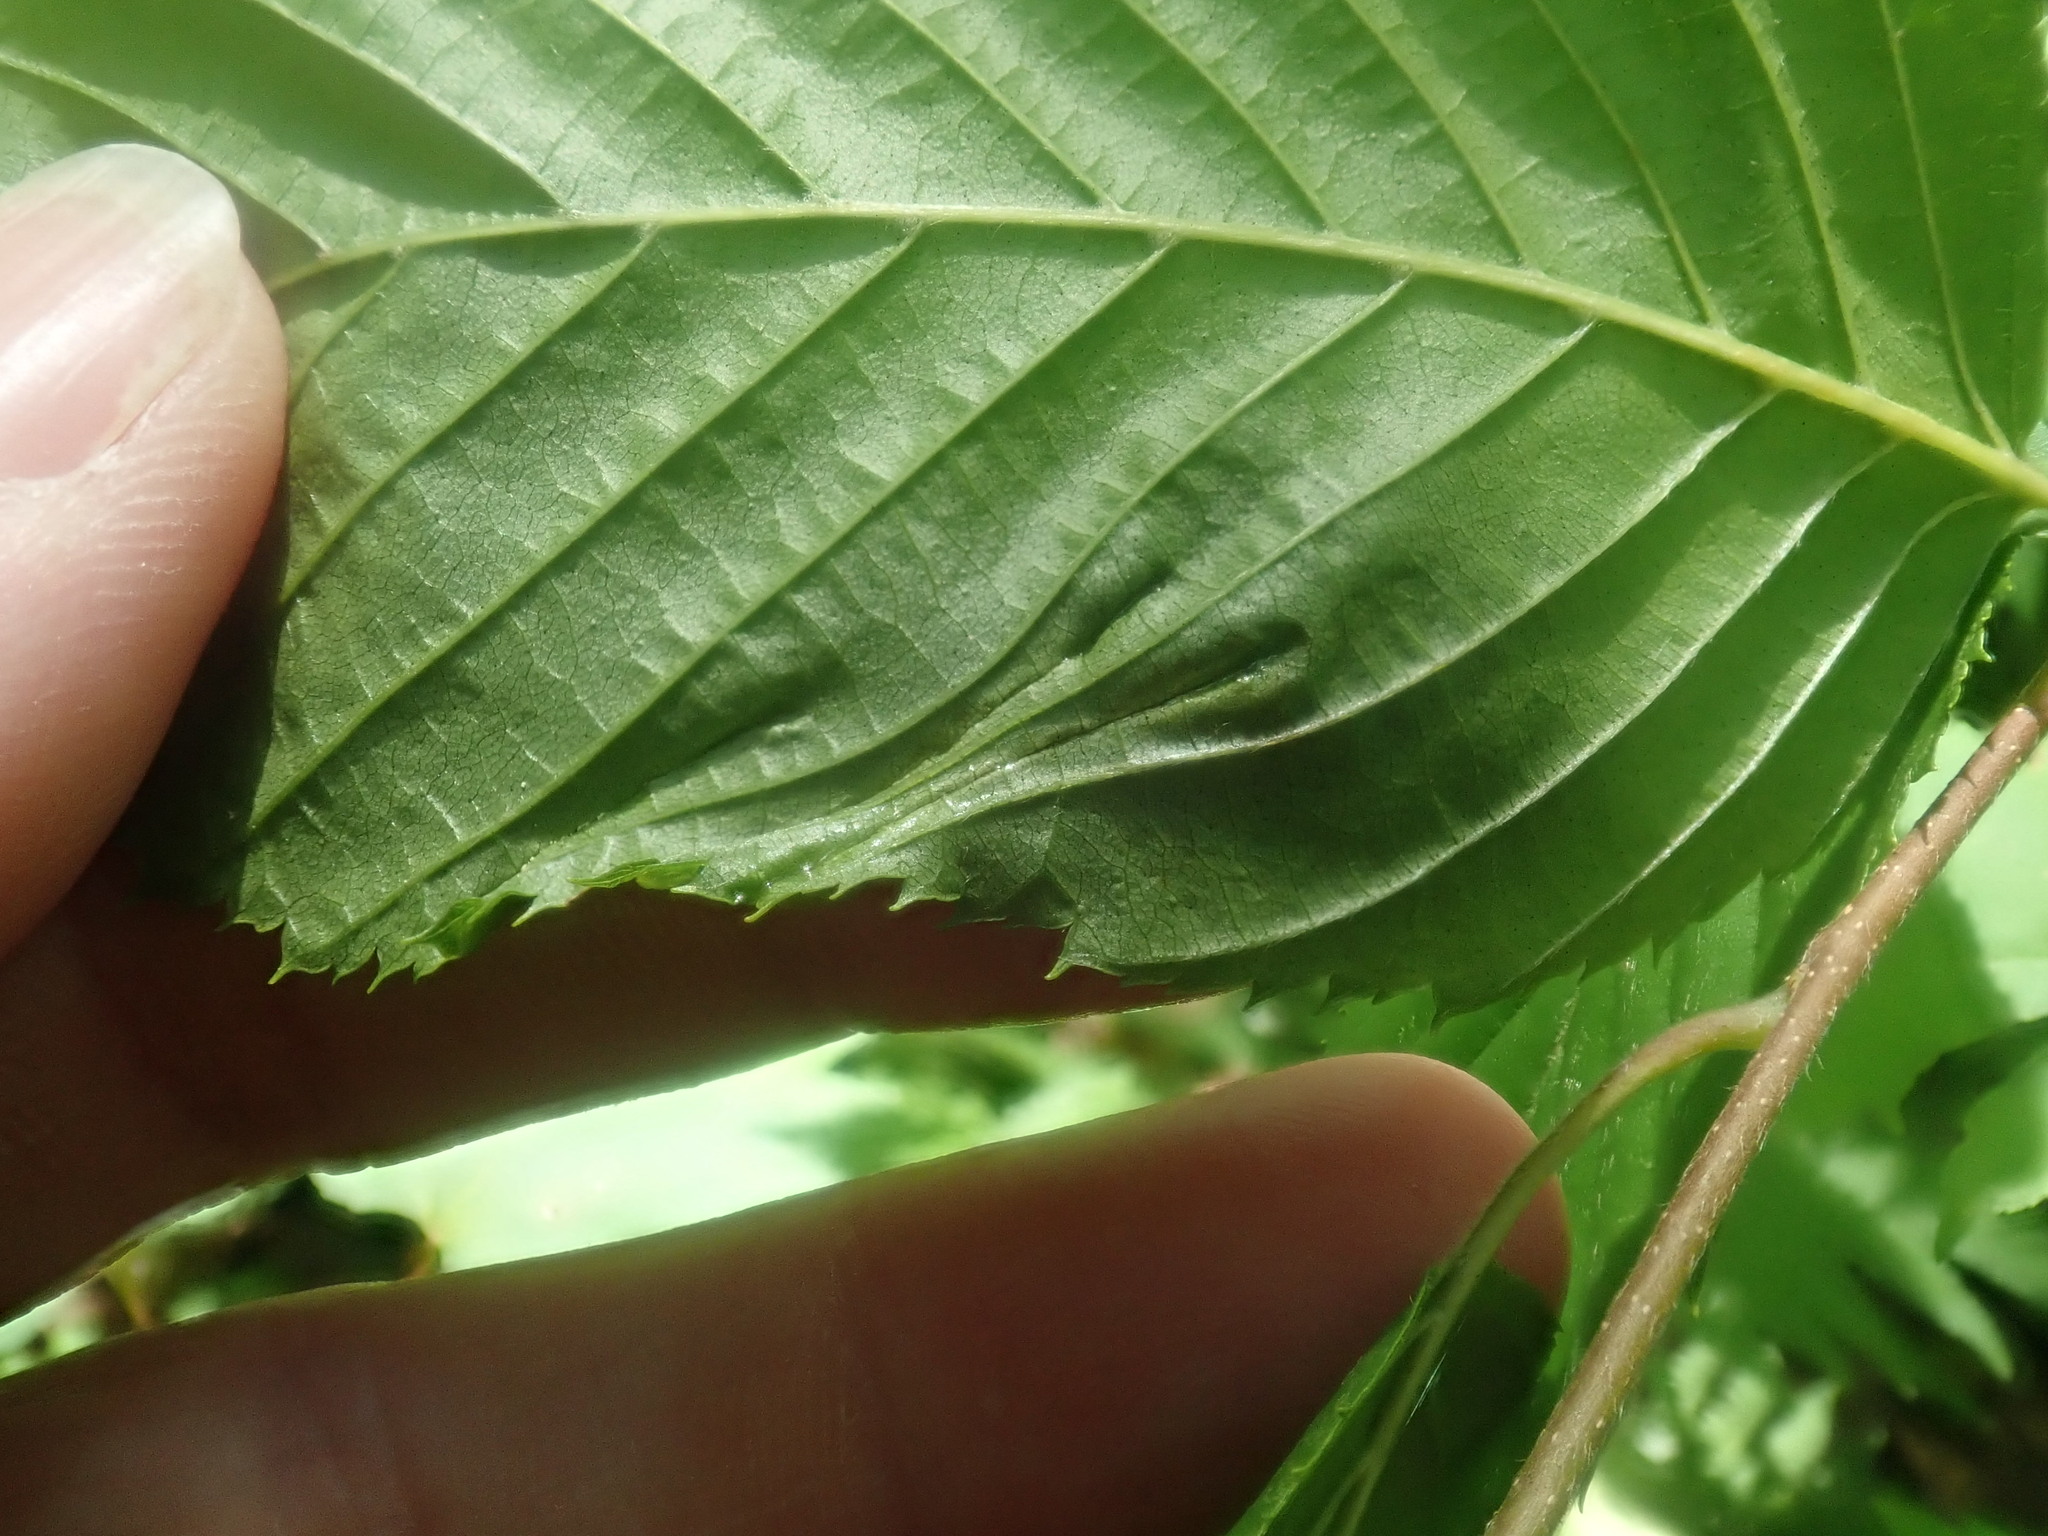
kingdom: Animalia
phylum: Arthropoda
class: Insecta
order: Hemiptera
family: Aphididae
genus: Hamamelistes
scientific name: Hamamelistes spinosus
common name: Witch hazel gall aphid
